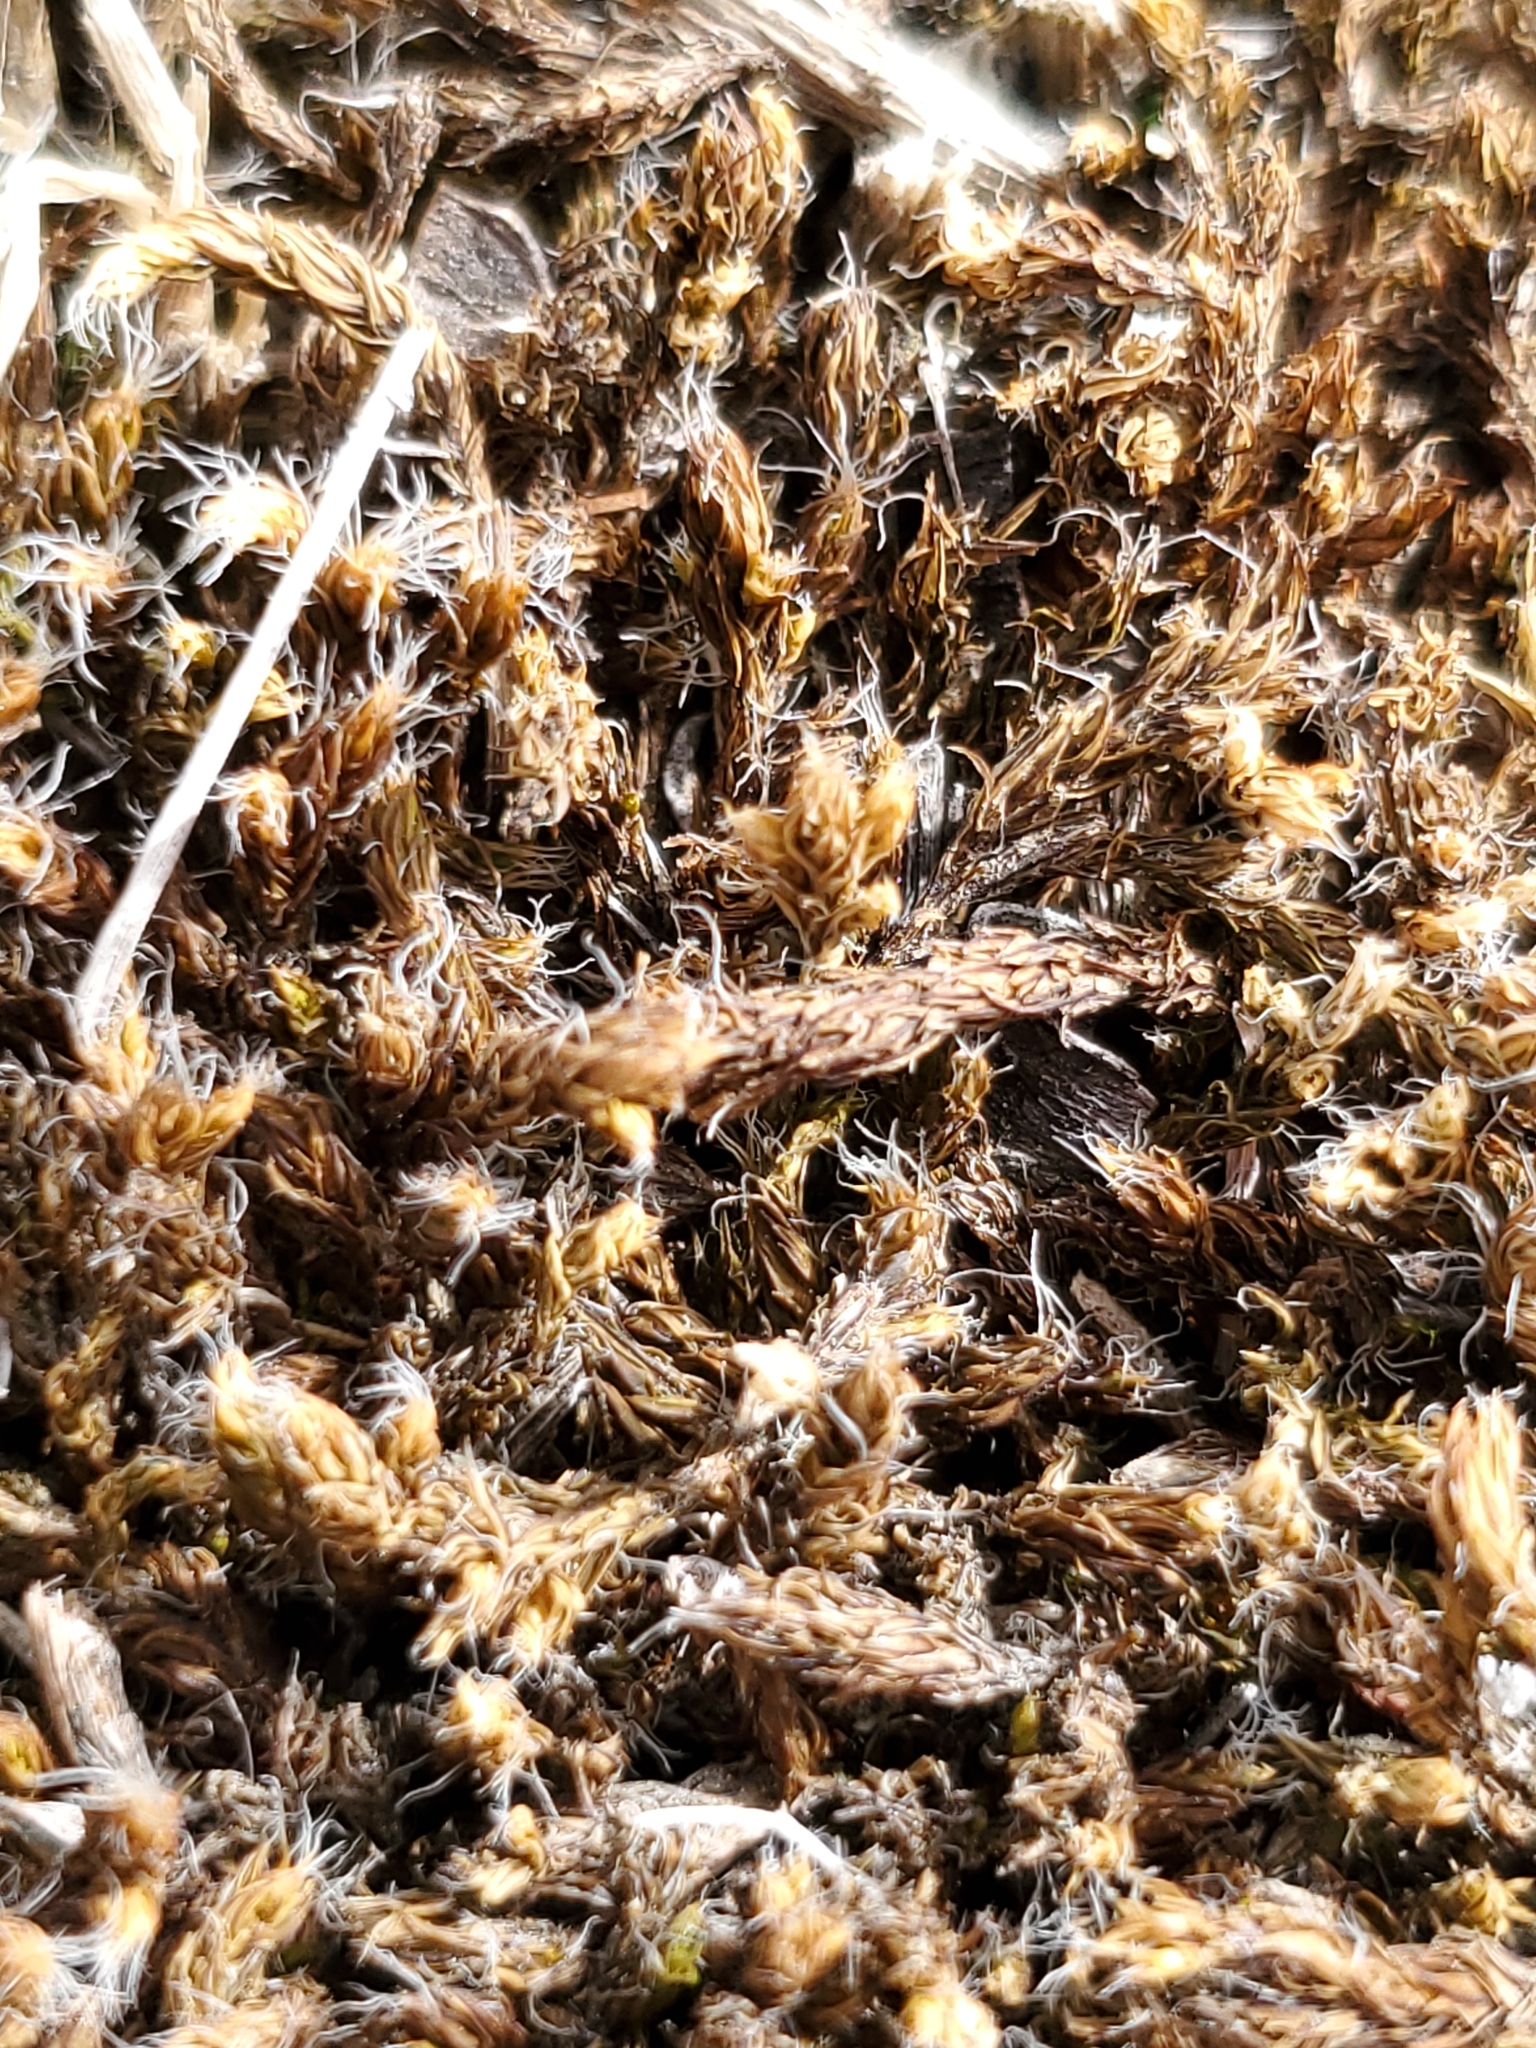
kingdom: Plantae
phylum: Tracheophyta
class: Lycopodiopsida
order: Selaginellales
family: Selaginellaceae
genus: Selaginella
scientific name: Selaginella densa
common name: Mountain spike-moss
